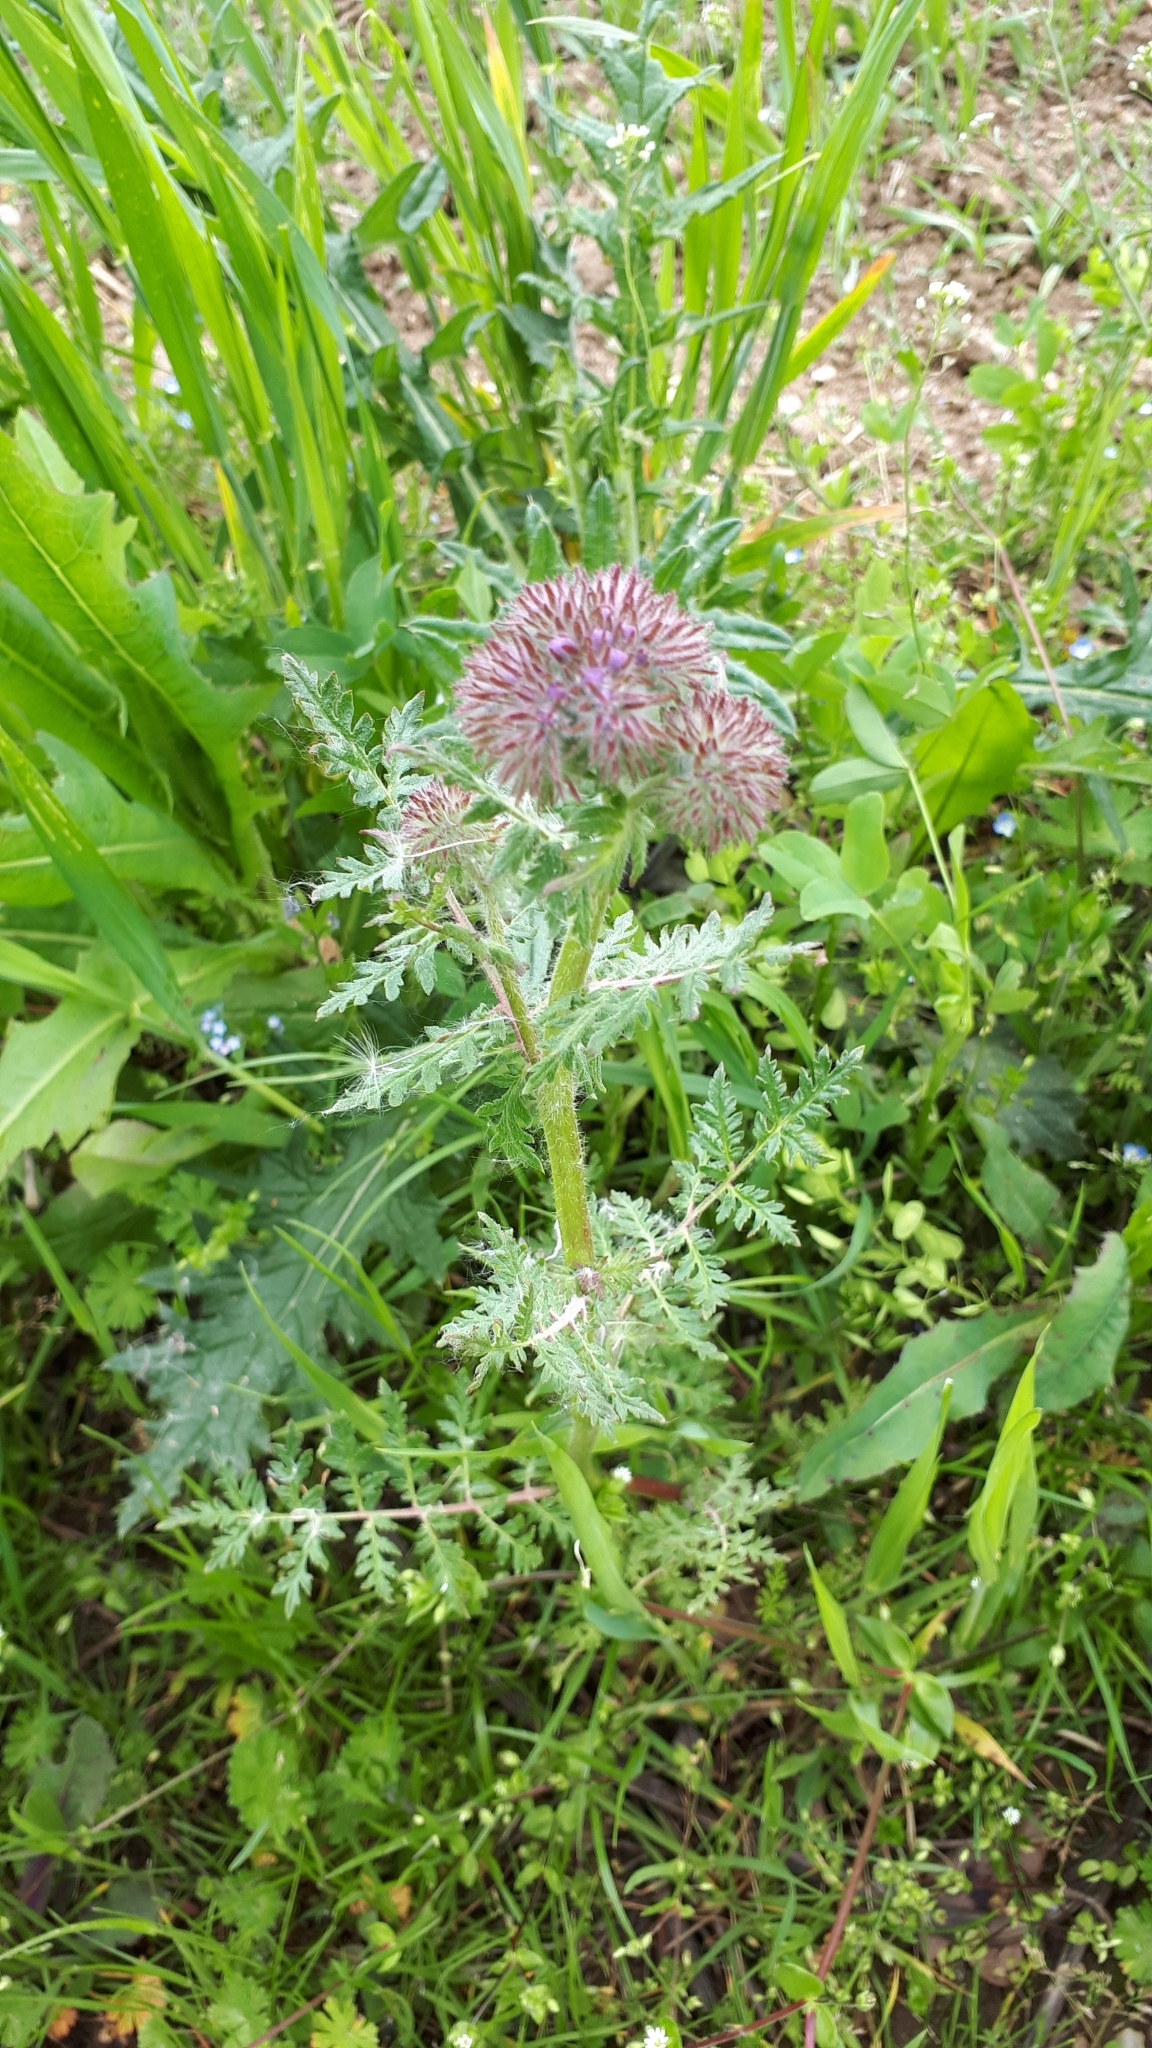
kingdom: Plantae
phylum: Tracheophyta
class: Magnoliopsida
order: Boraginales
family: Hydrophyllaceae
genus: Phacelia
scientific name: Phacelia tanacetifolia
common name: Phacelia
